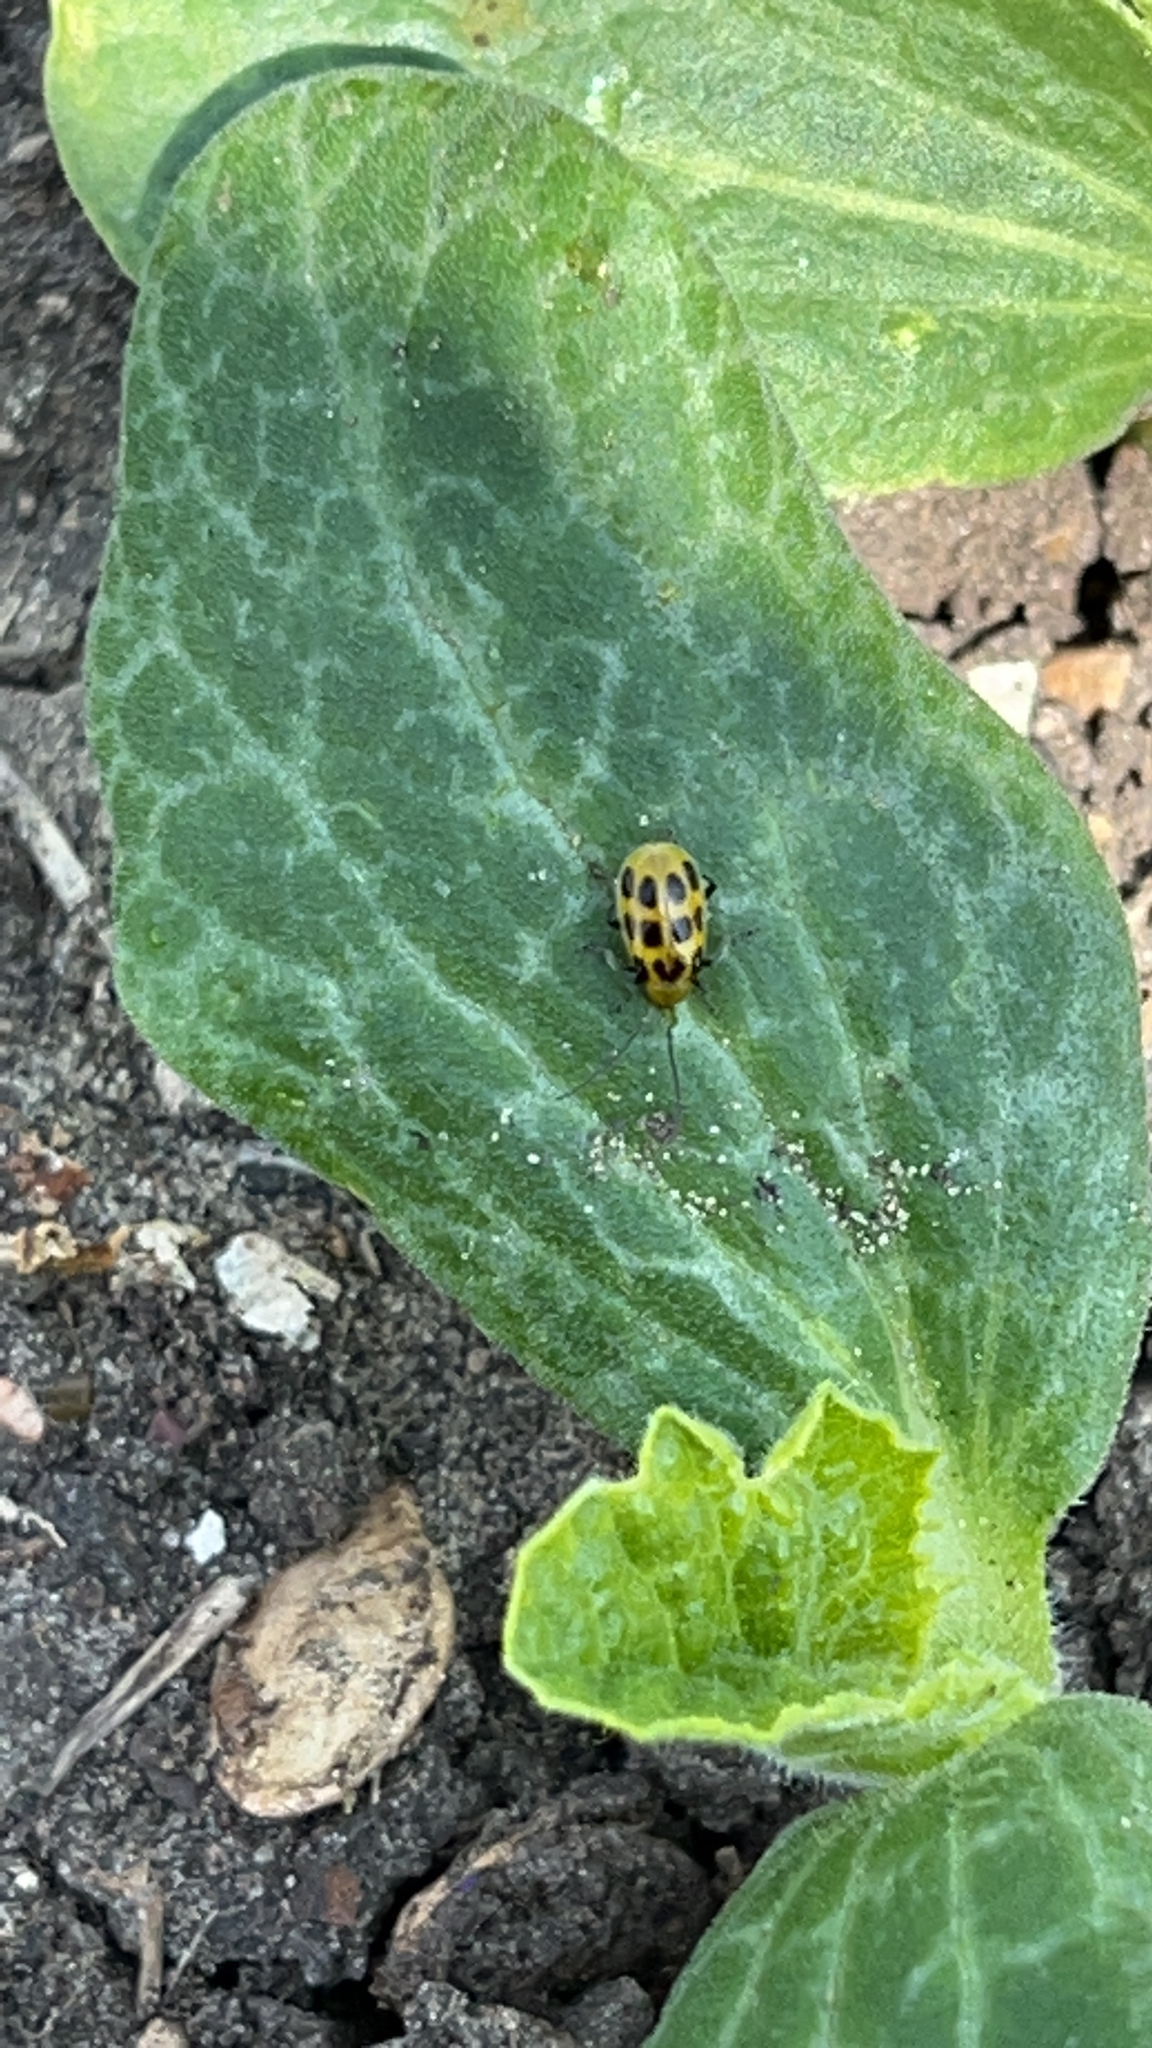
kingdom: Animalia
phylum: Arthropoda
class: Insecta
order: Coleoptera
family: Chrysomelidae
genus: Diabrotica
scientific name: Diabrotica undecimpunctata
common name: Spotted cucumber beetle
